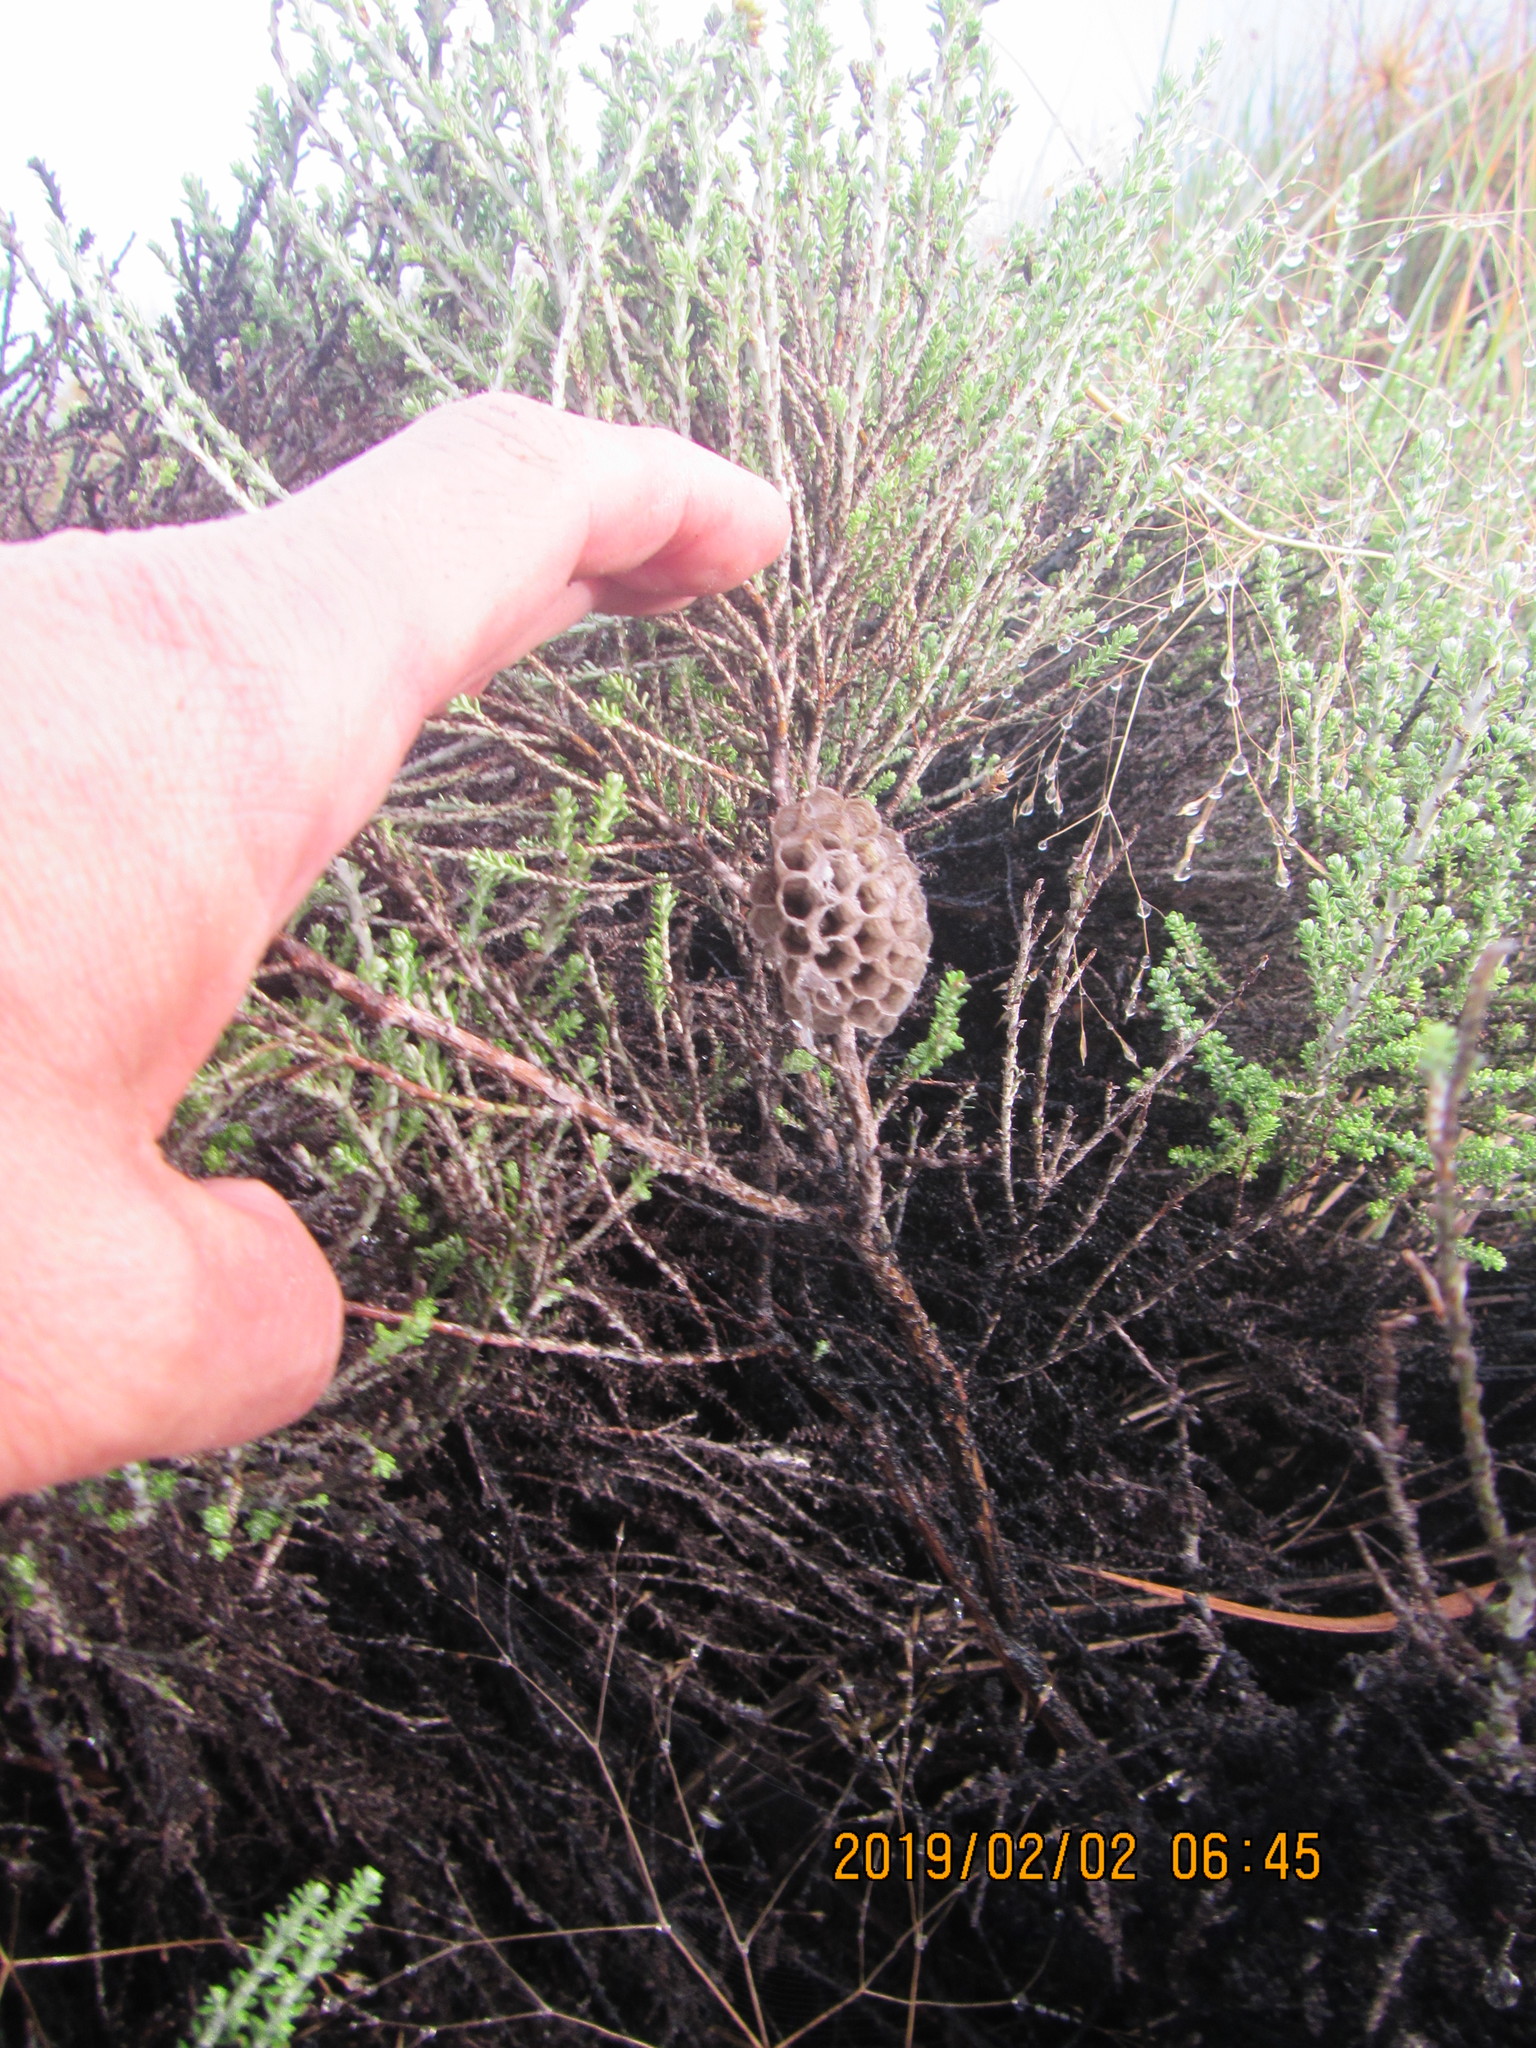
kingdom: Plantae
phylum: Tracheophyta
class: Magnoliopsida
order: Asterales
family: Asteraceae
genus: Ozothamnus
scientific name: Ozothamnus leptophyllus
